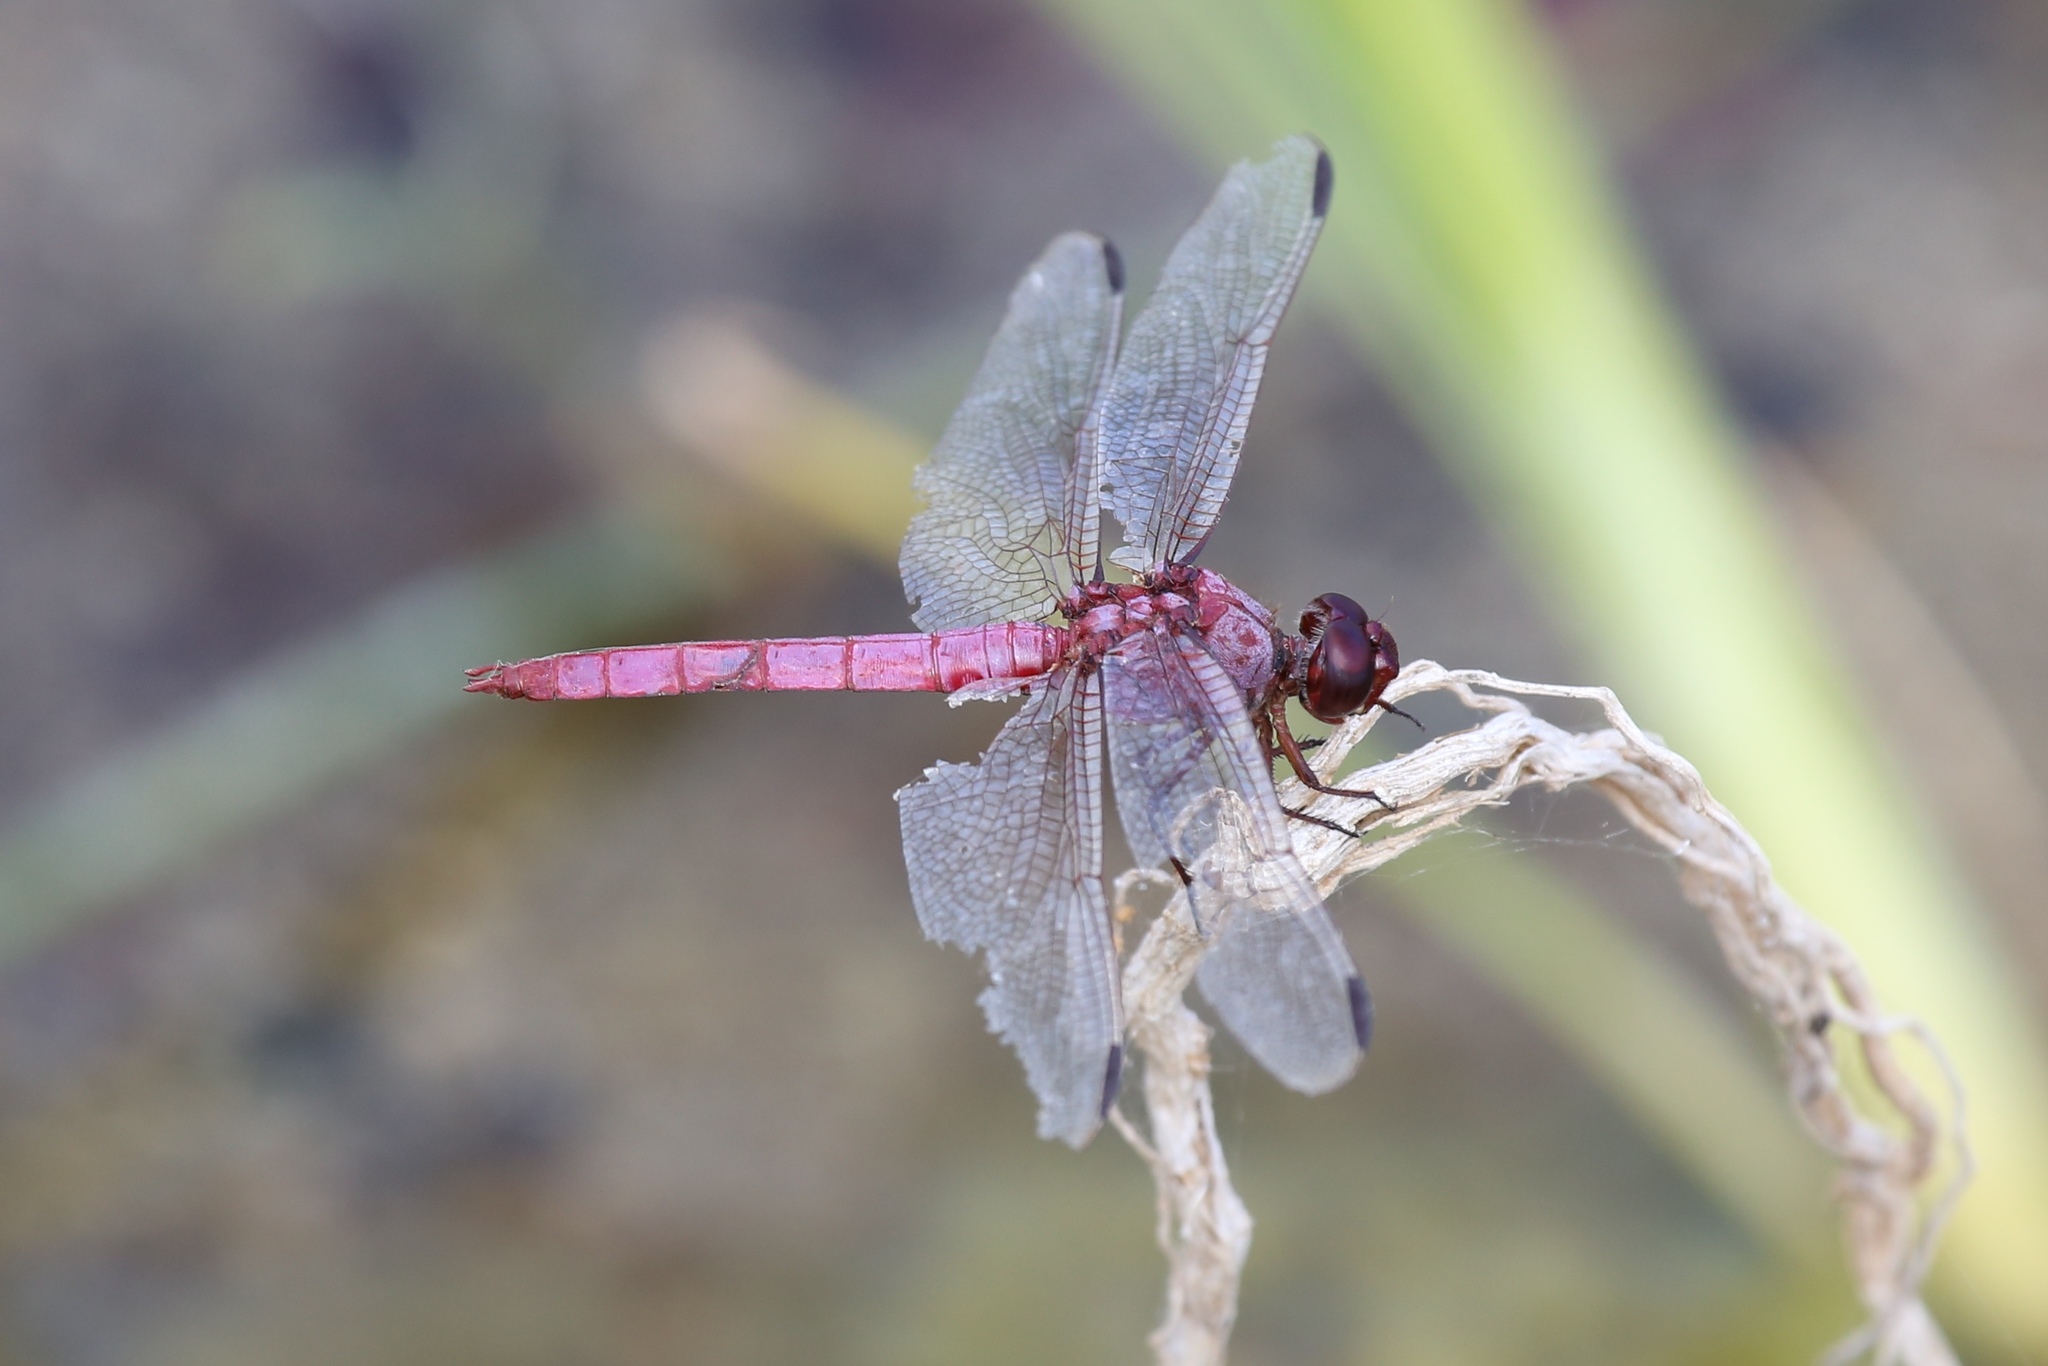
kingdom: Animalia
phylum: Arthropoda
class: Insecta
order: Odonata
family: Libellulidae
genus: Orthemis
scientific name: Orthemis ferruginea
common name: Roseate skimmer
